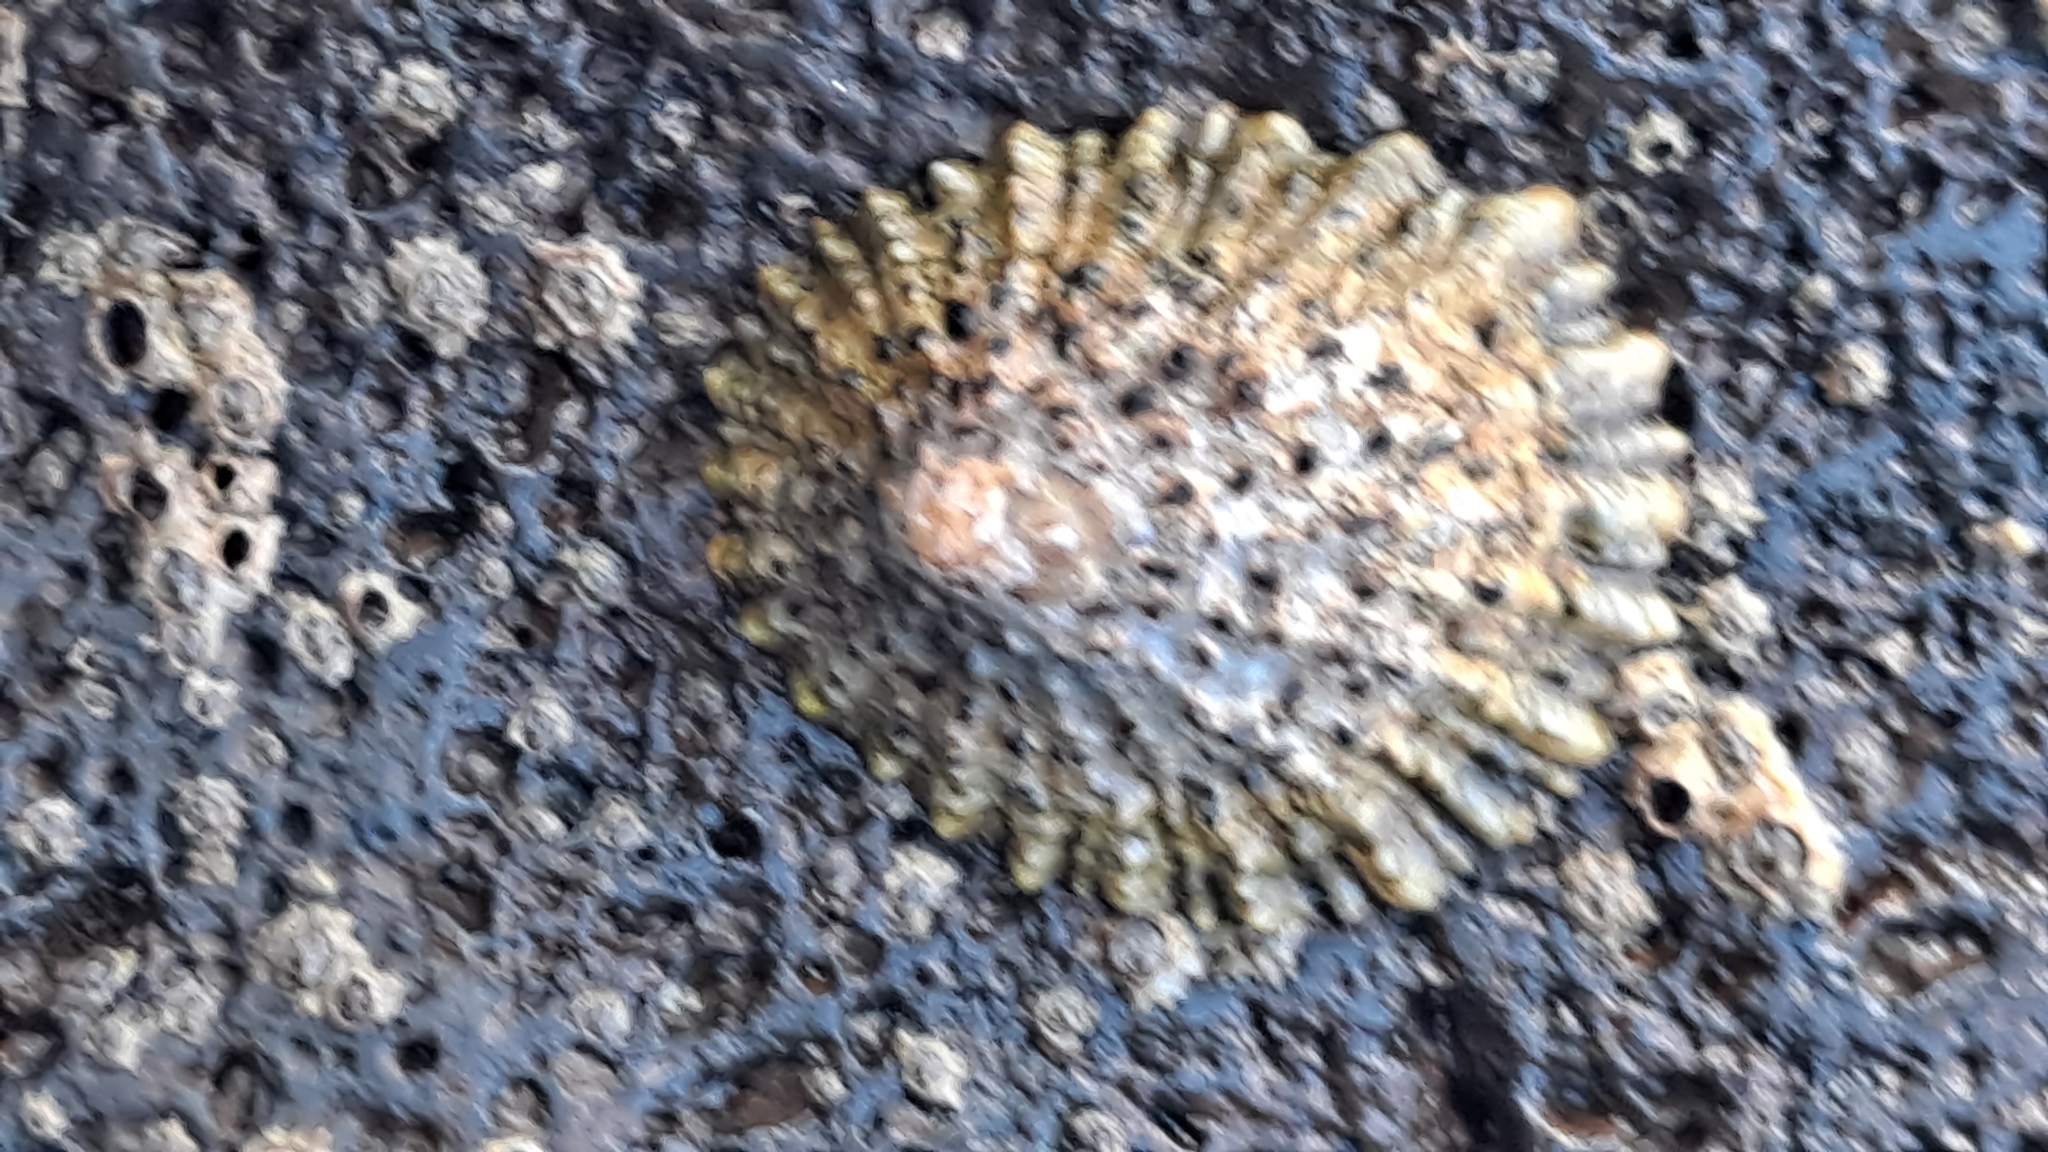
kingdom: Animalia
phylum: Mollusca
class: Gastropoda
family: Patellidae
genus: Patella
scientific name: Patella piperata
